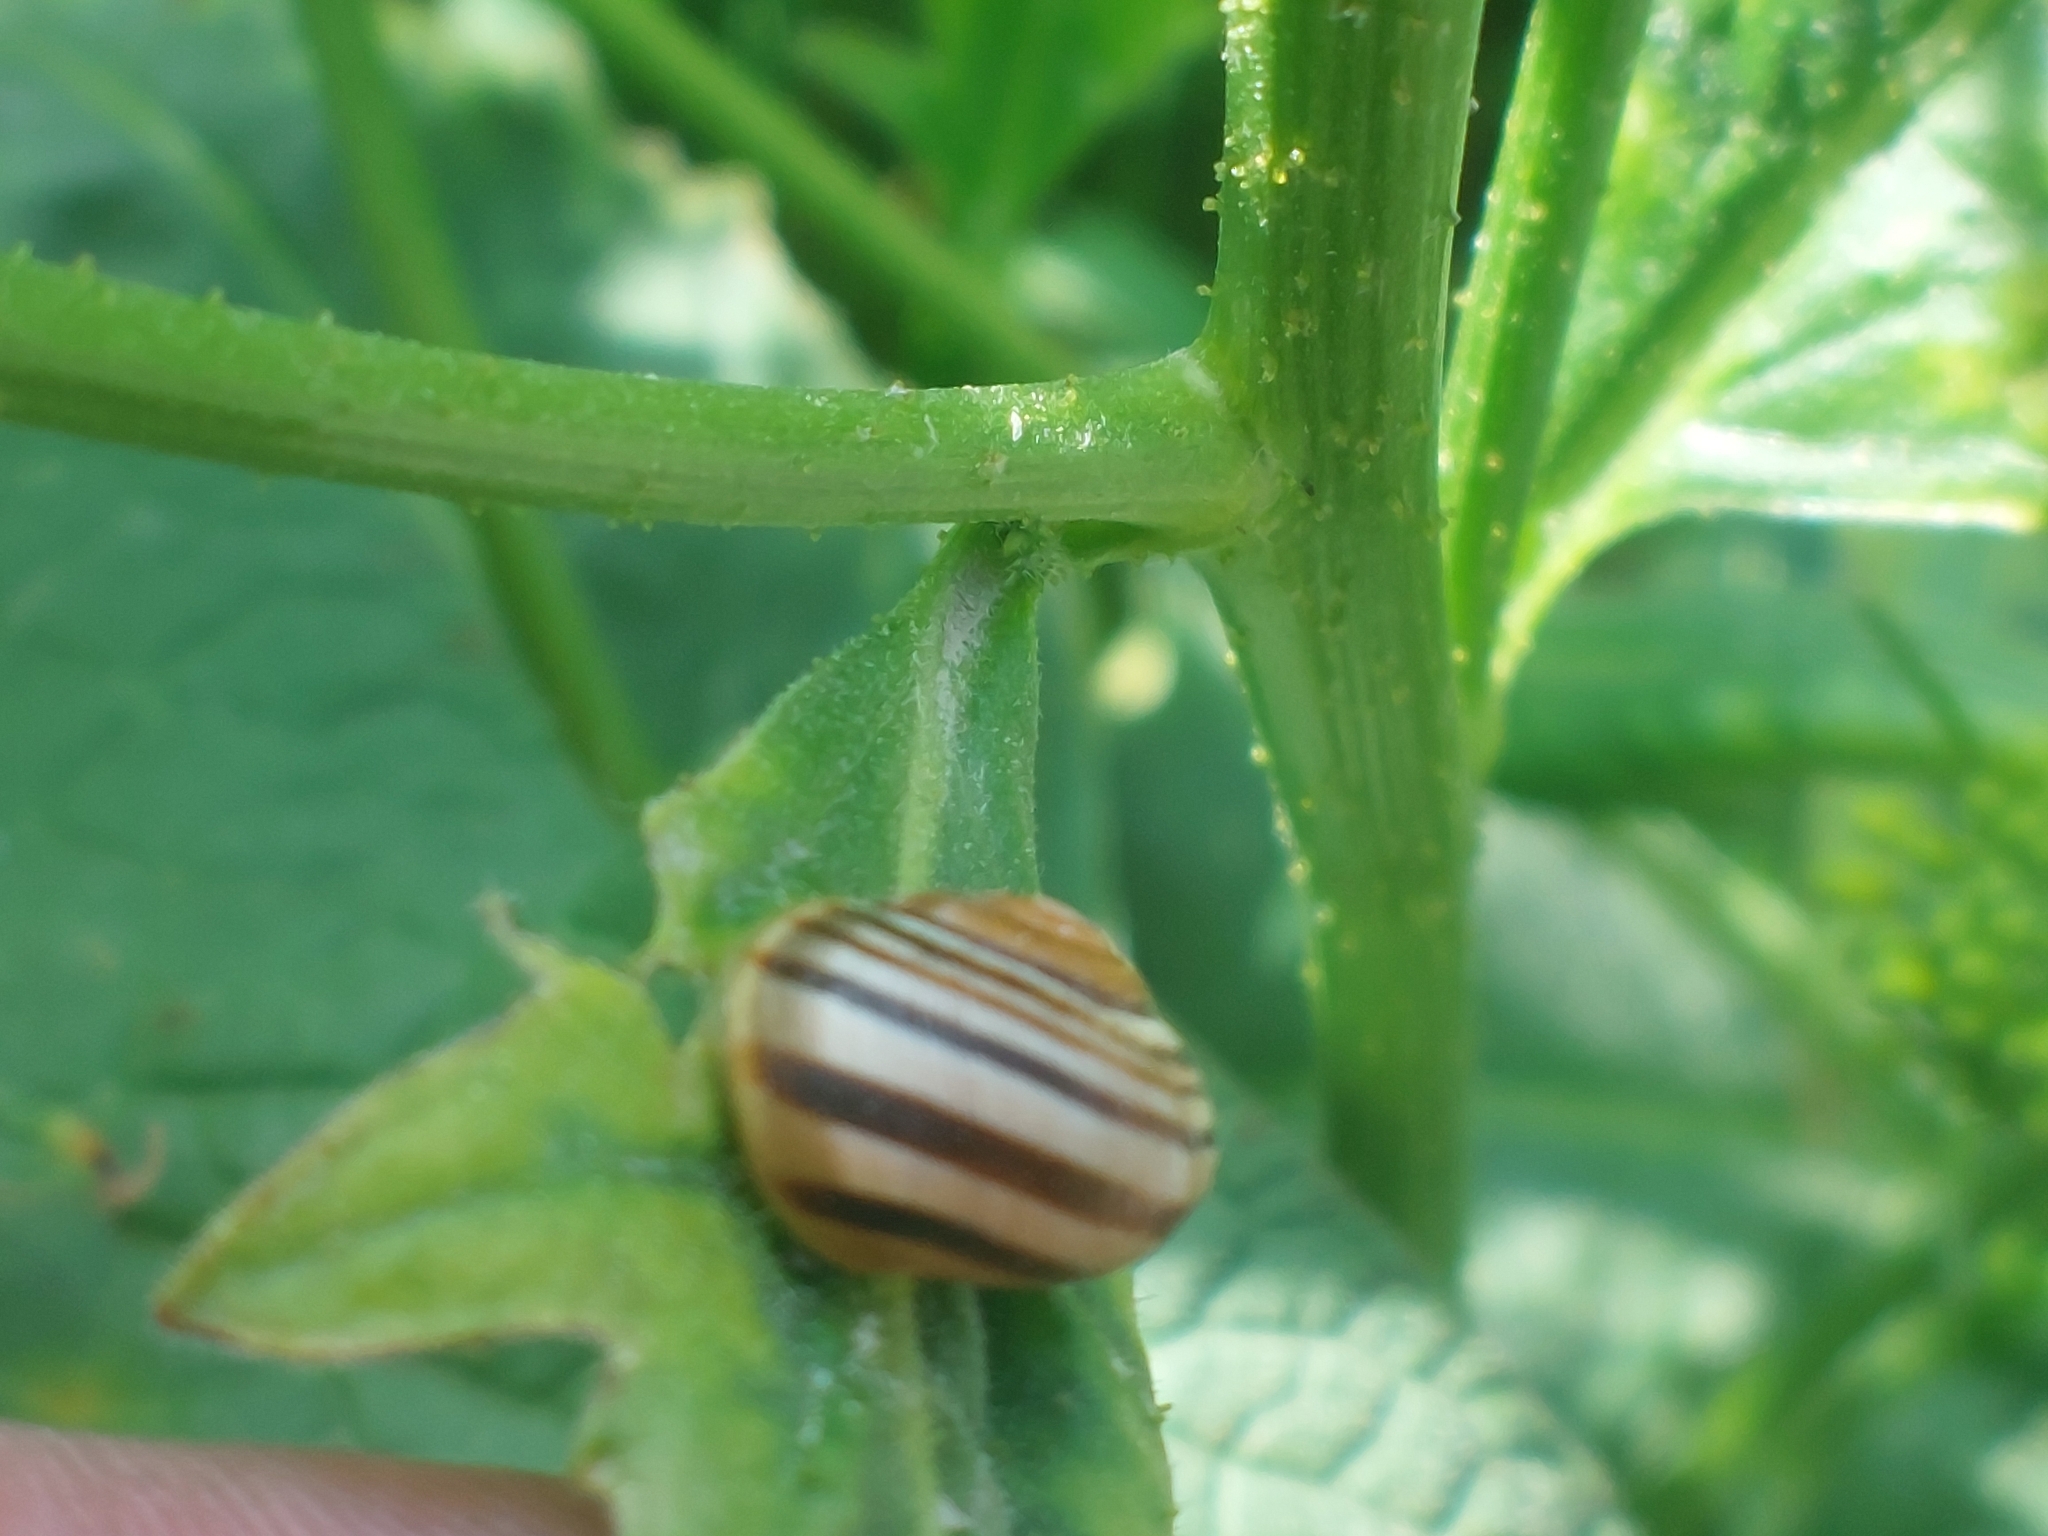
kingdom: Animalia
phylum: Mollusca
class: Gastropoda
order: Stylommatophora
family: Helicidae
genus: Cepaea
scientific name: Cepaea
